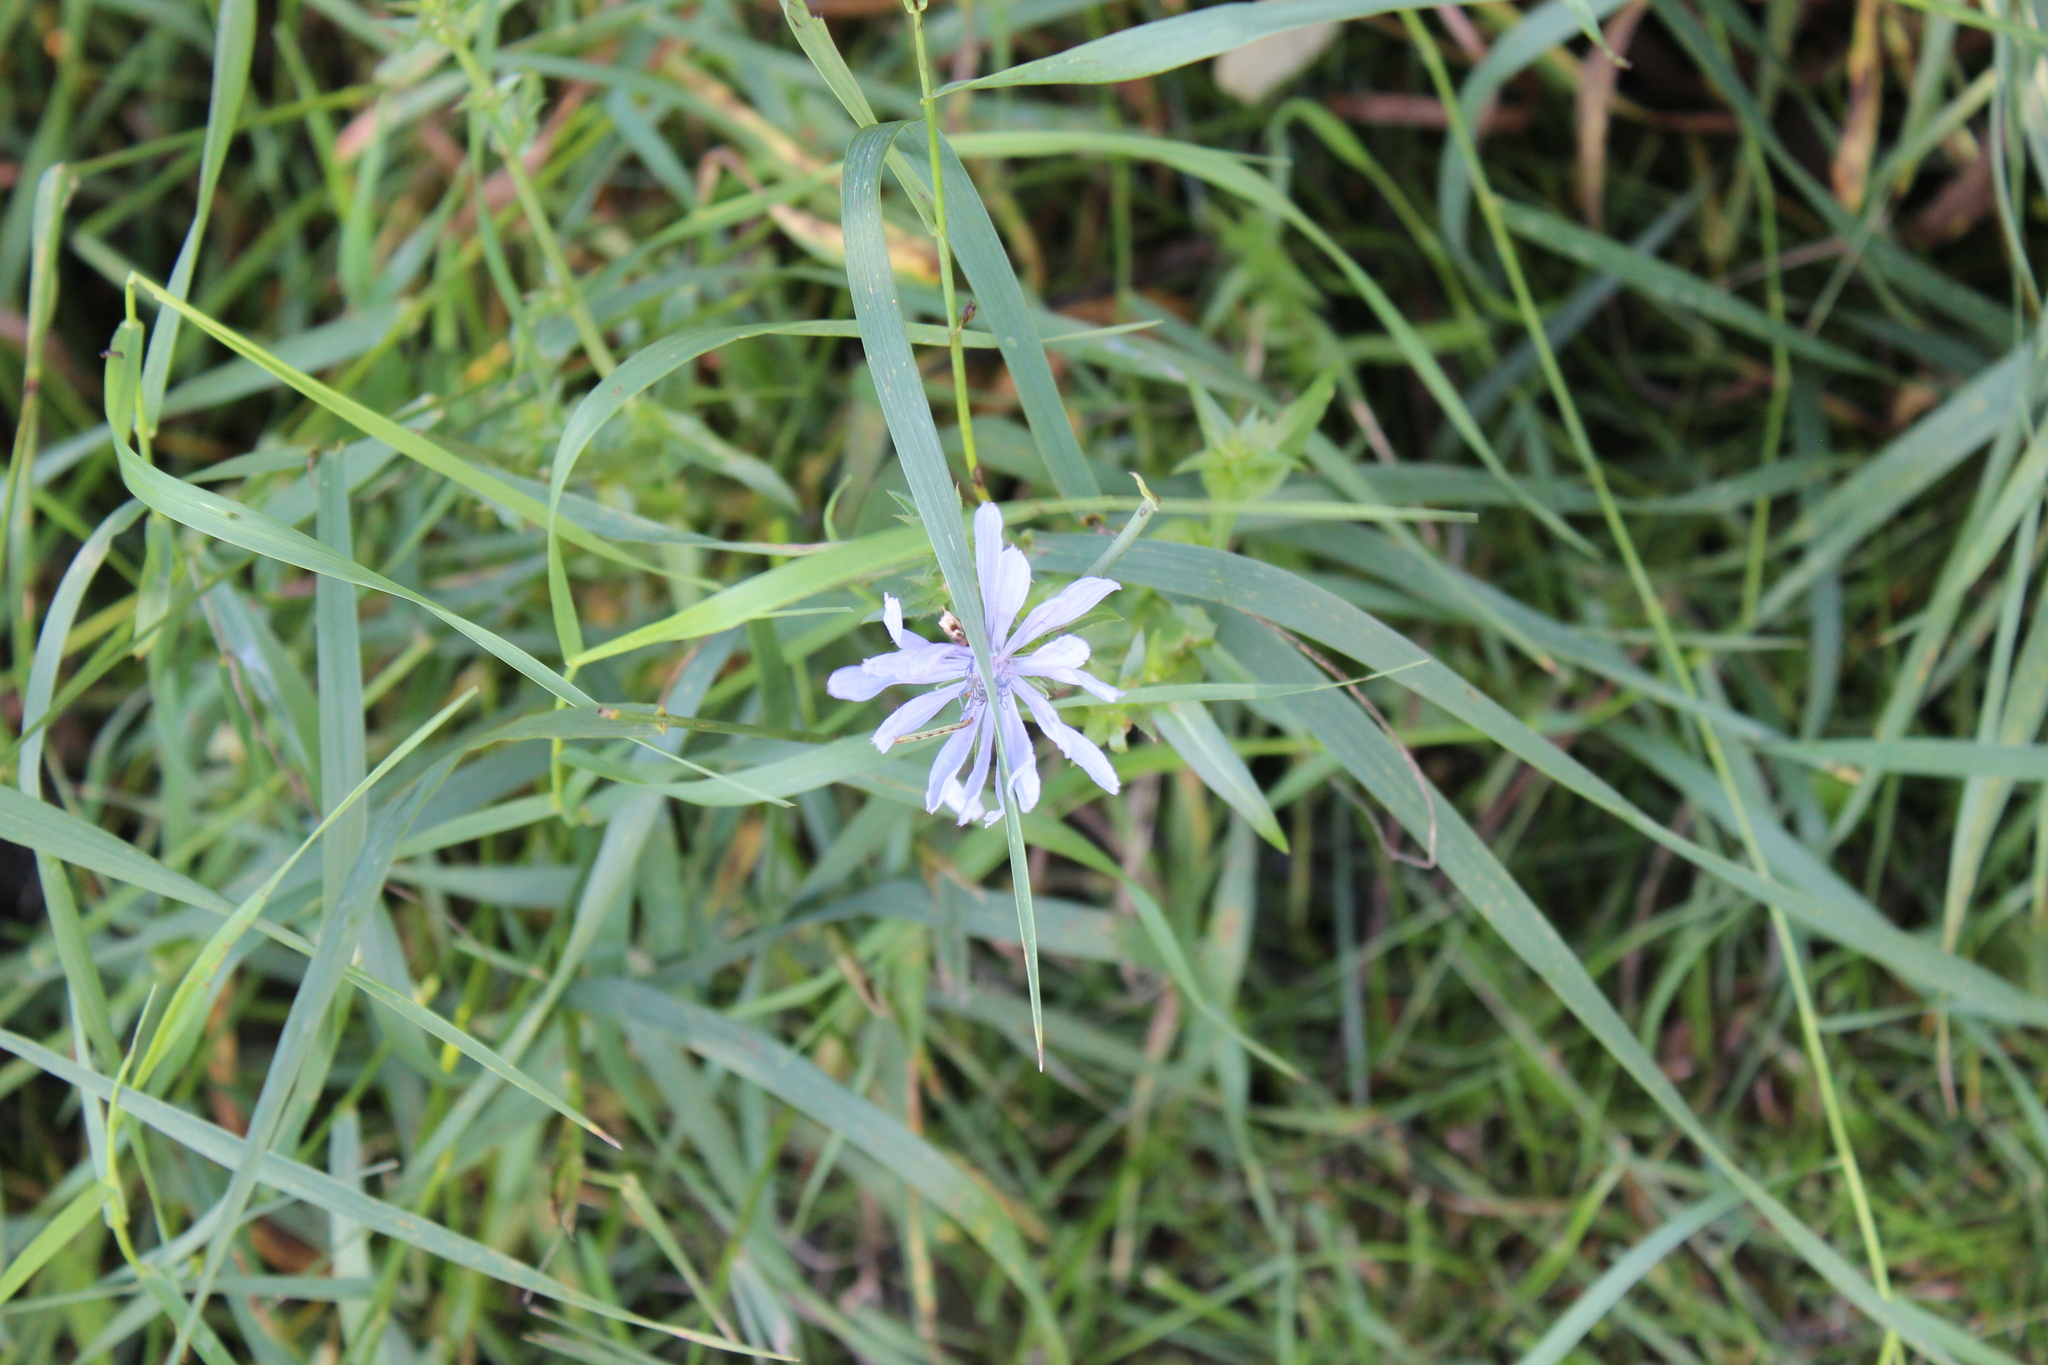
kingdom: Plantae
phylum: Tracheophyta
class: Magnoliopsida
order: Asterales
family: Asteraceae
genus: Cichorium
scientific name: Cichorium intybus
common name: Chicory
